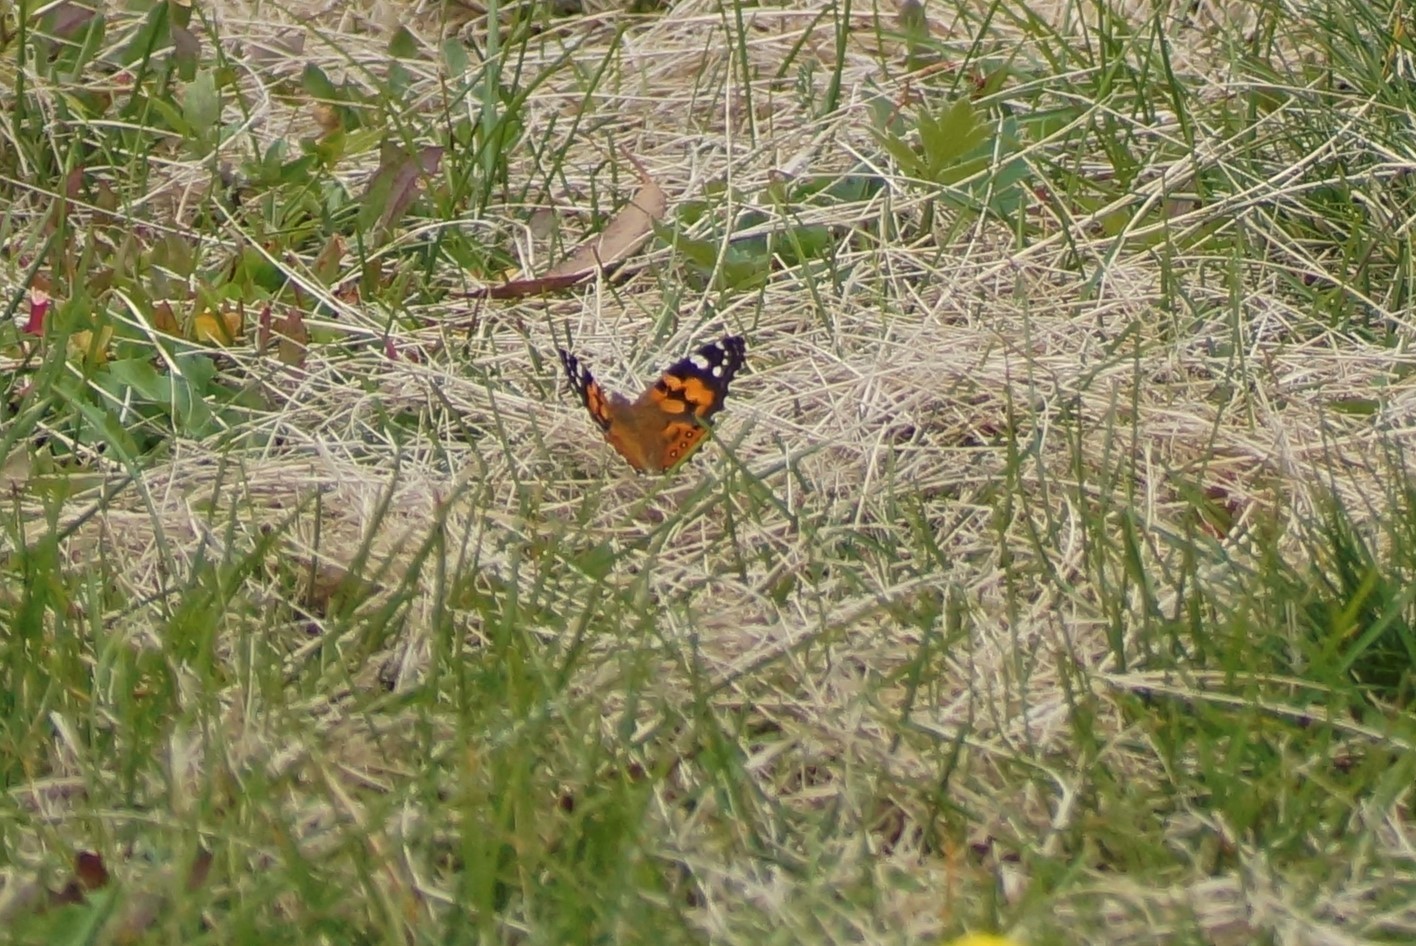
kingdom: Animalia
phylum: Arthropoda
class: Insecta
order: Lepidoptera
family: Nymphalidae
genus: Vanessa
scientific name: Vanessa kershawi
